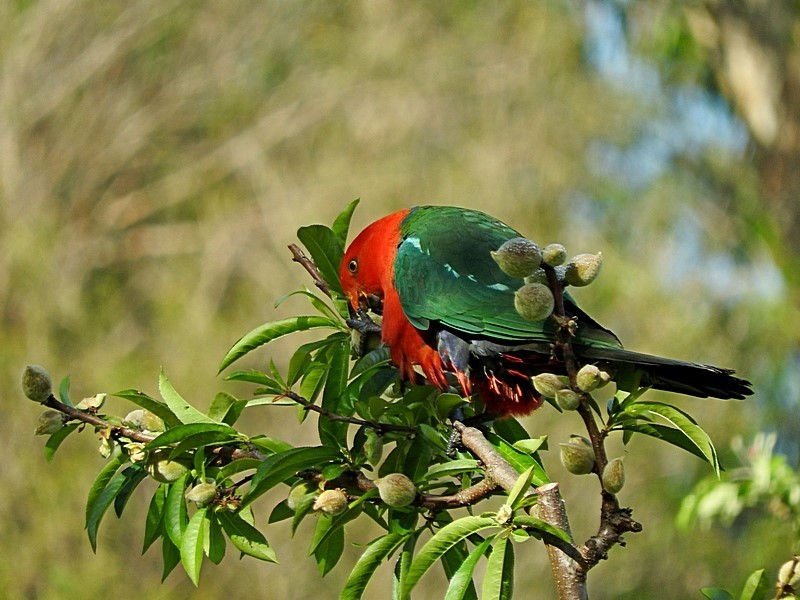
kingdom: Animalia
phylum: Chordata
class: Aves
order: Psittaciformes
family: Psittacidae
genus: Alisterus
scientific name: Alisterus scapularis
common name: Australian king parrot
